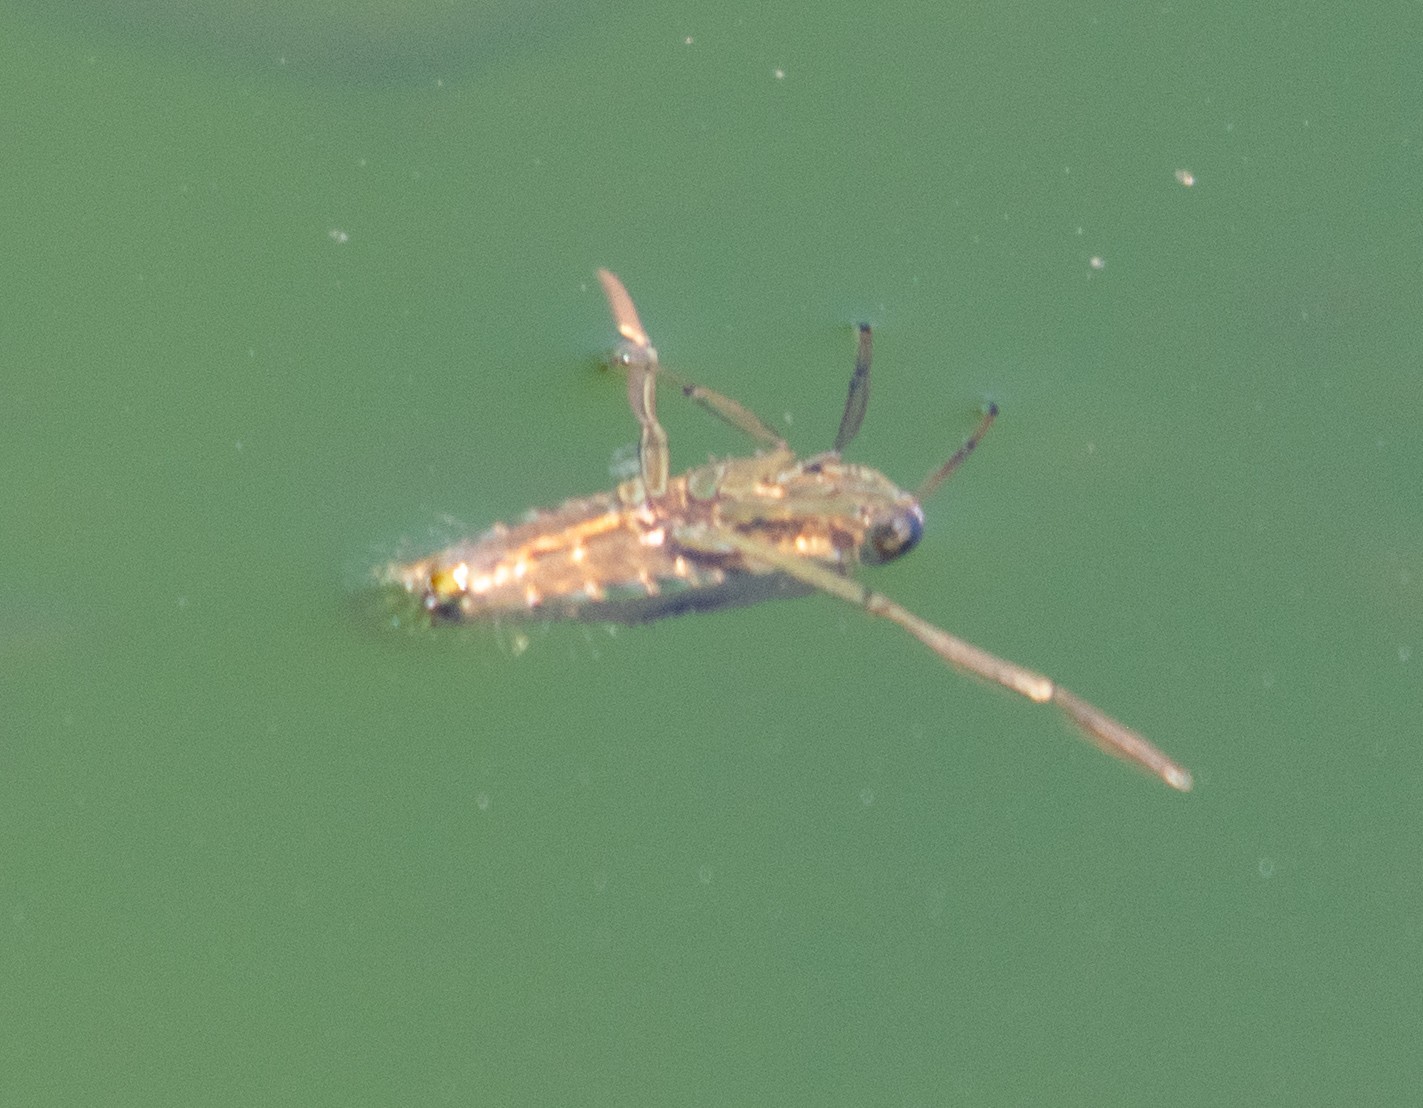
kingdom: Animalia
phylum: Arthropoda
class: Insecta
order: Hemiptera
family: Notonectidae
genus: Notonecta
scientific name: Notonecta
